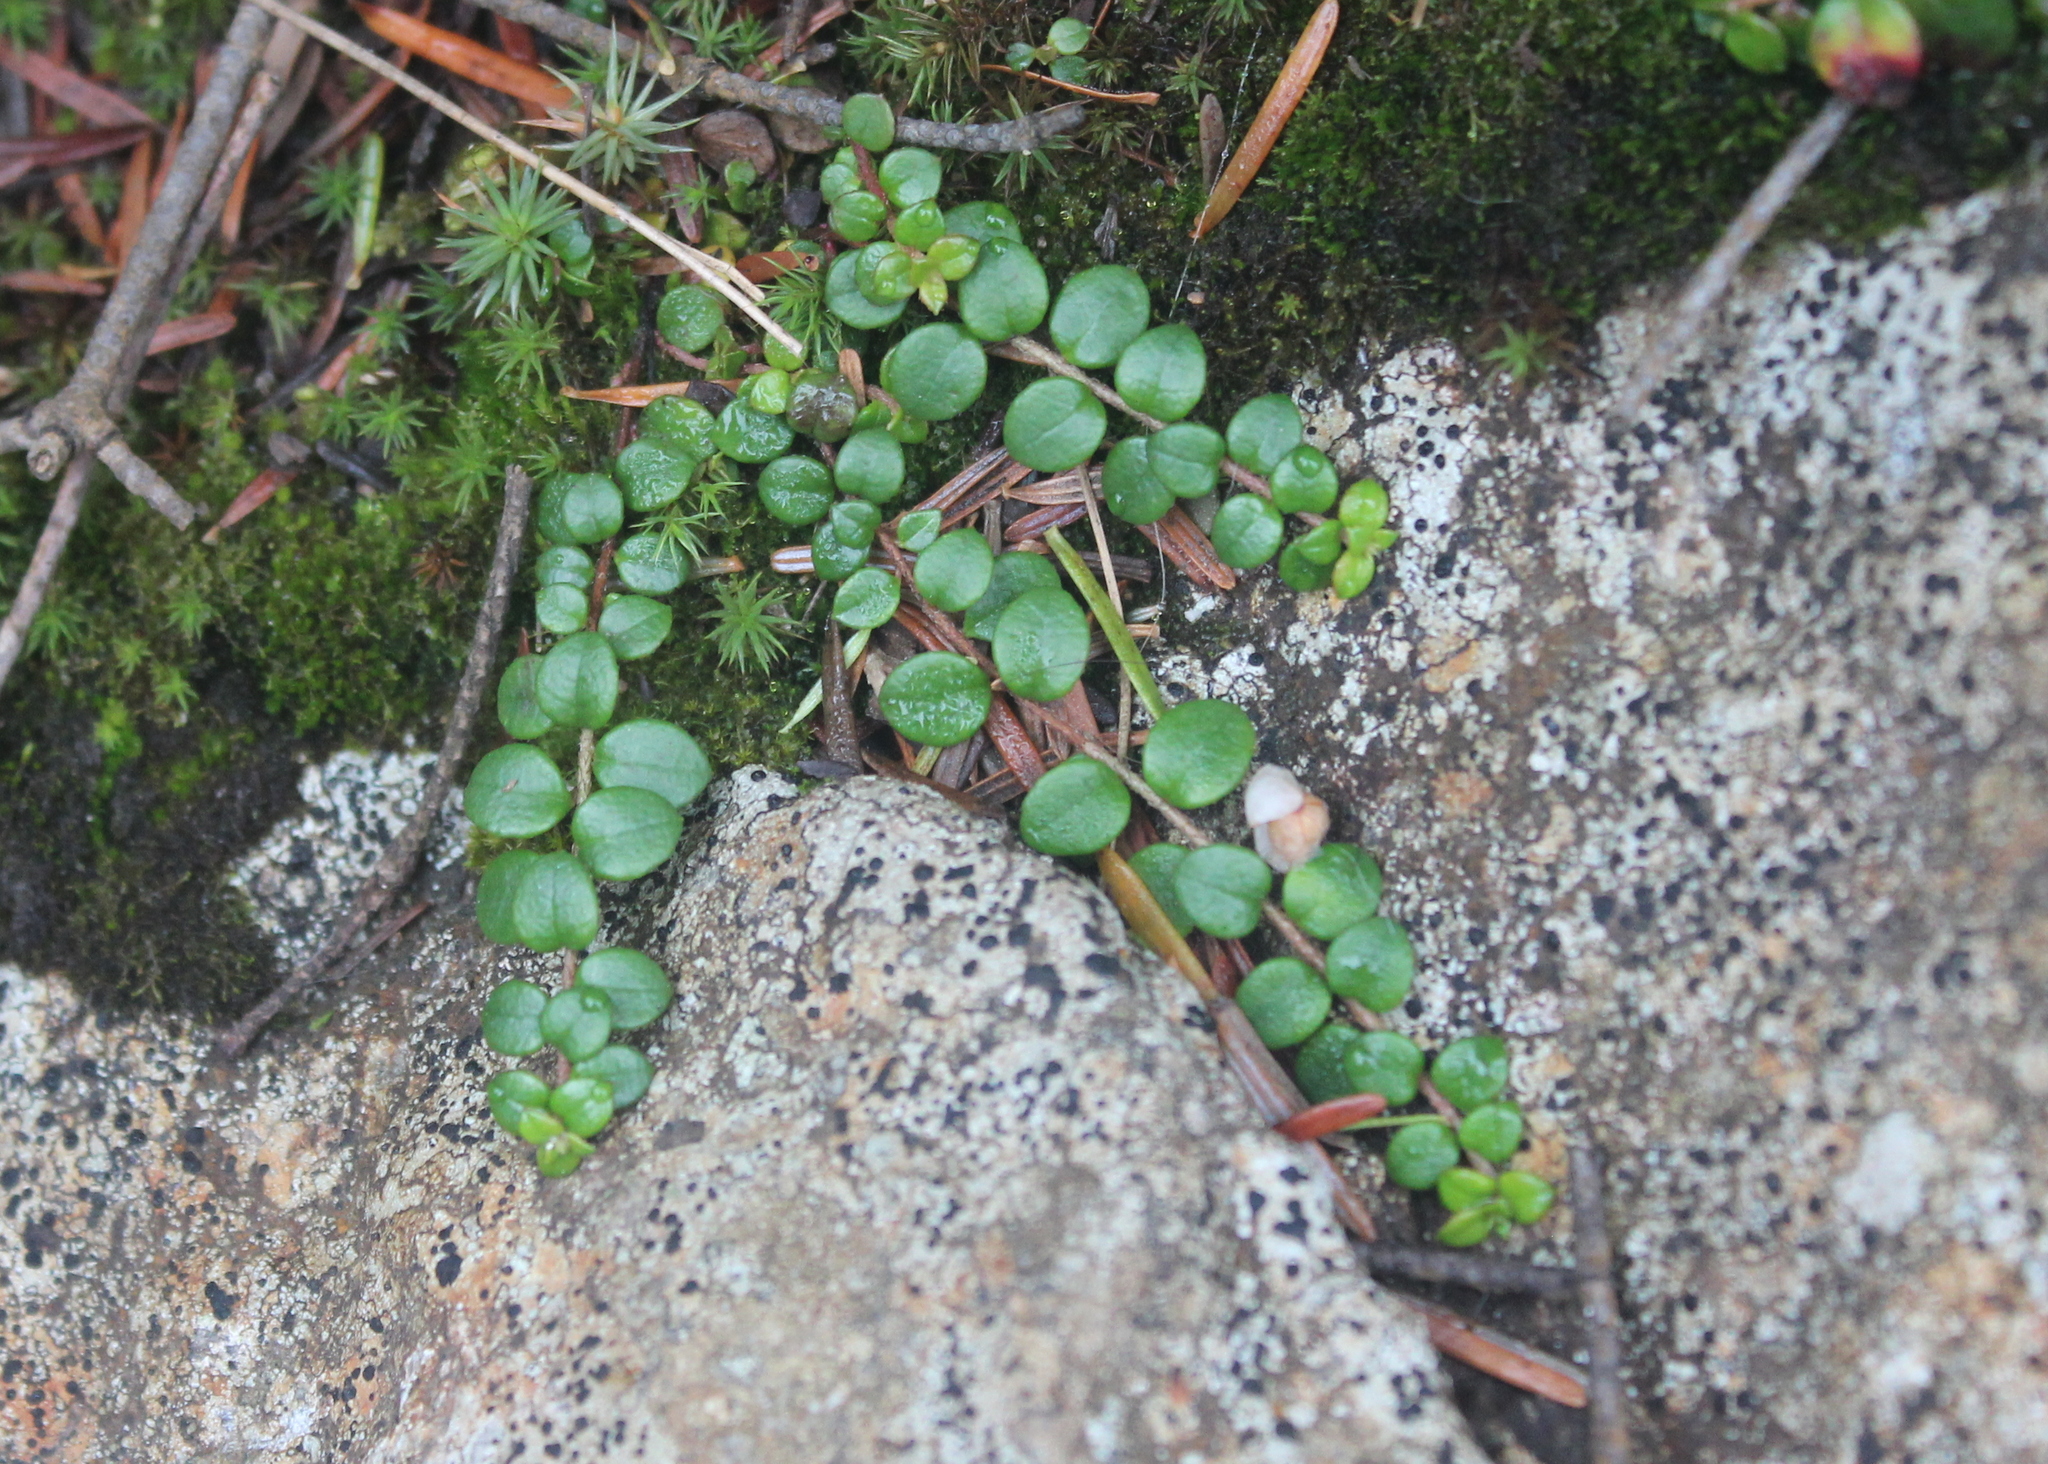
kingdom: Plantae
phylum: Tracheophyta
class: Magnoliopsida
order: Ericales
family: Ericaceae
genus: Gaultheria
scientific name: Gaultheria hispidula
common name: Cancer wintergreen
